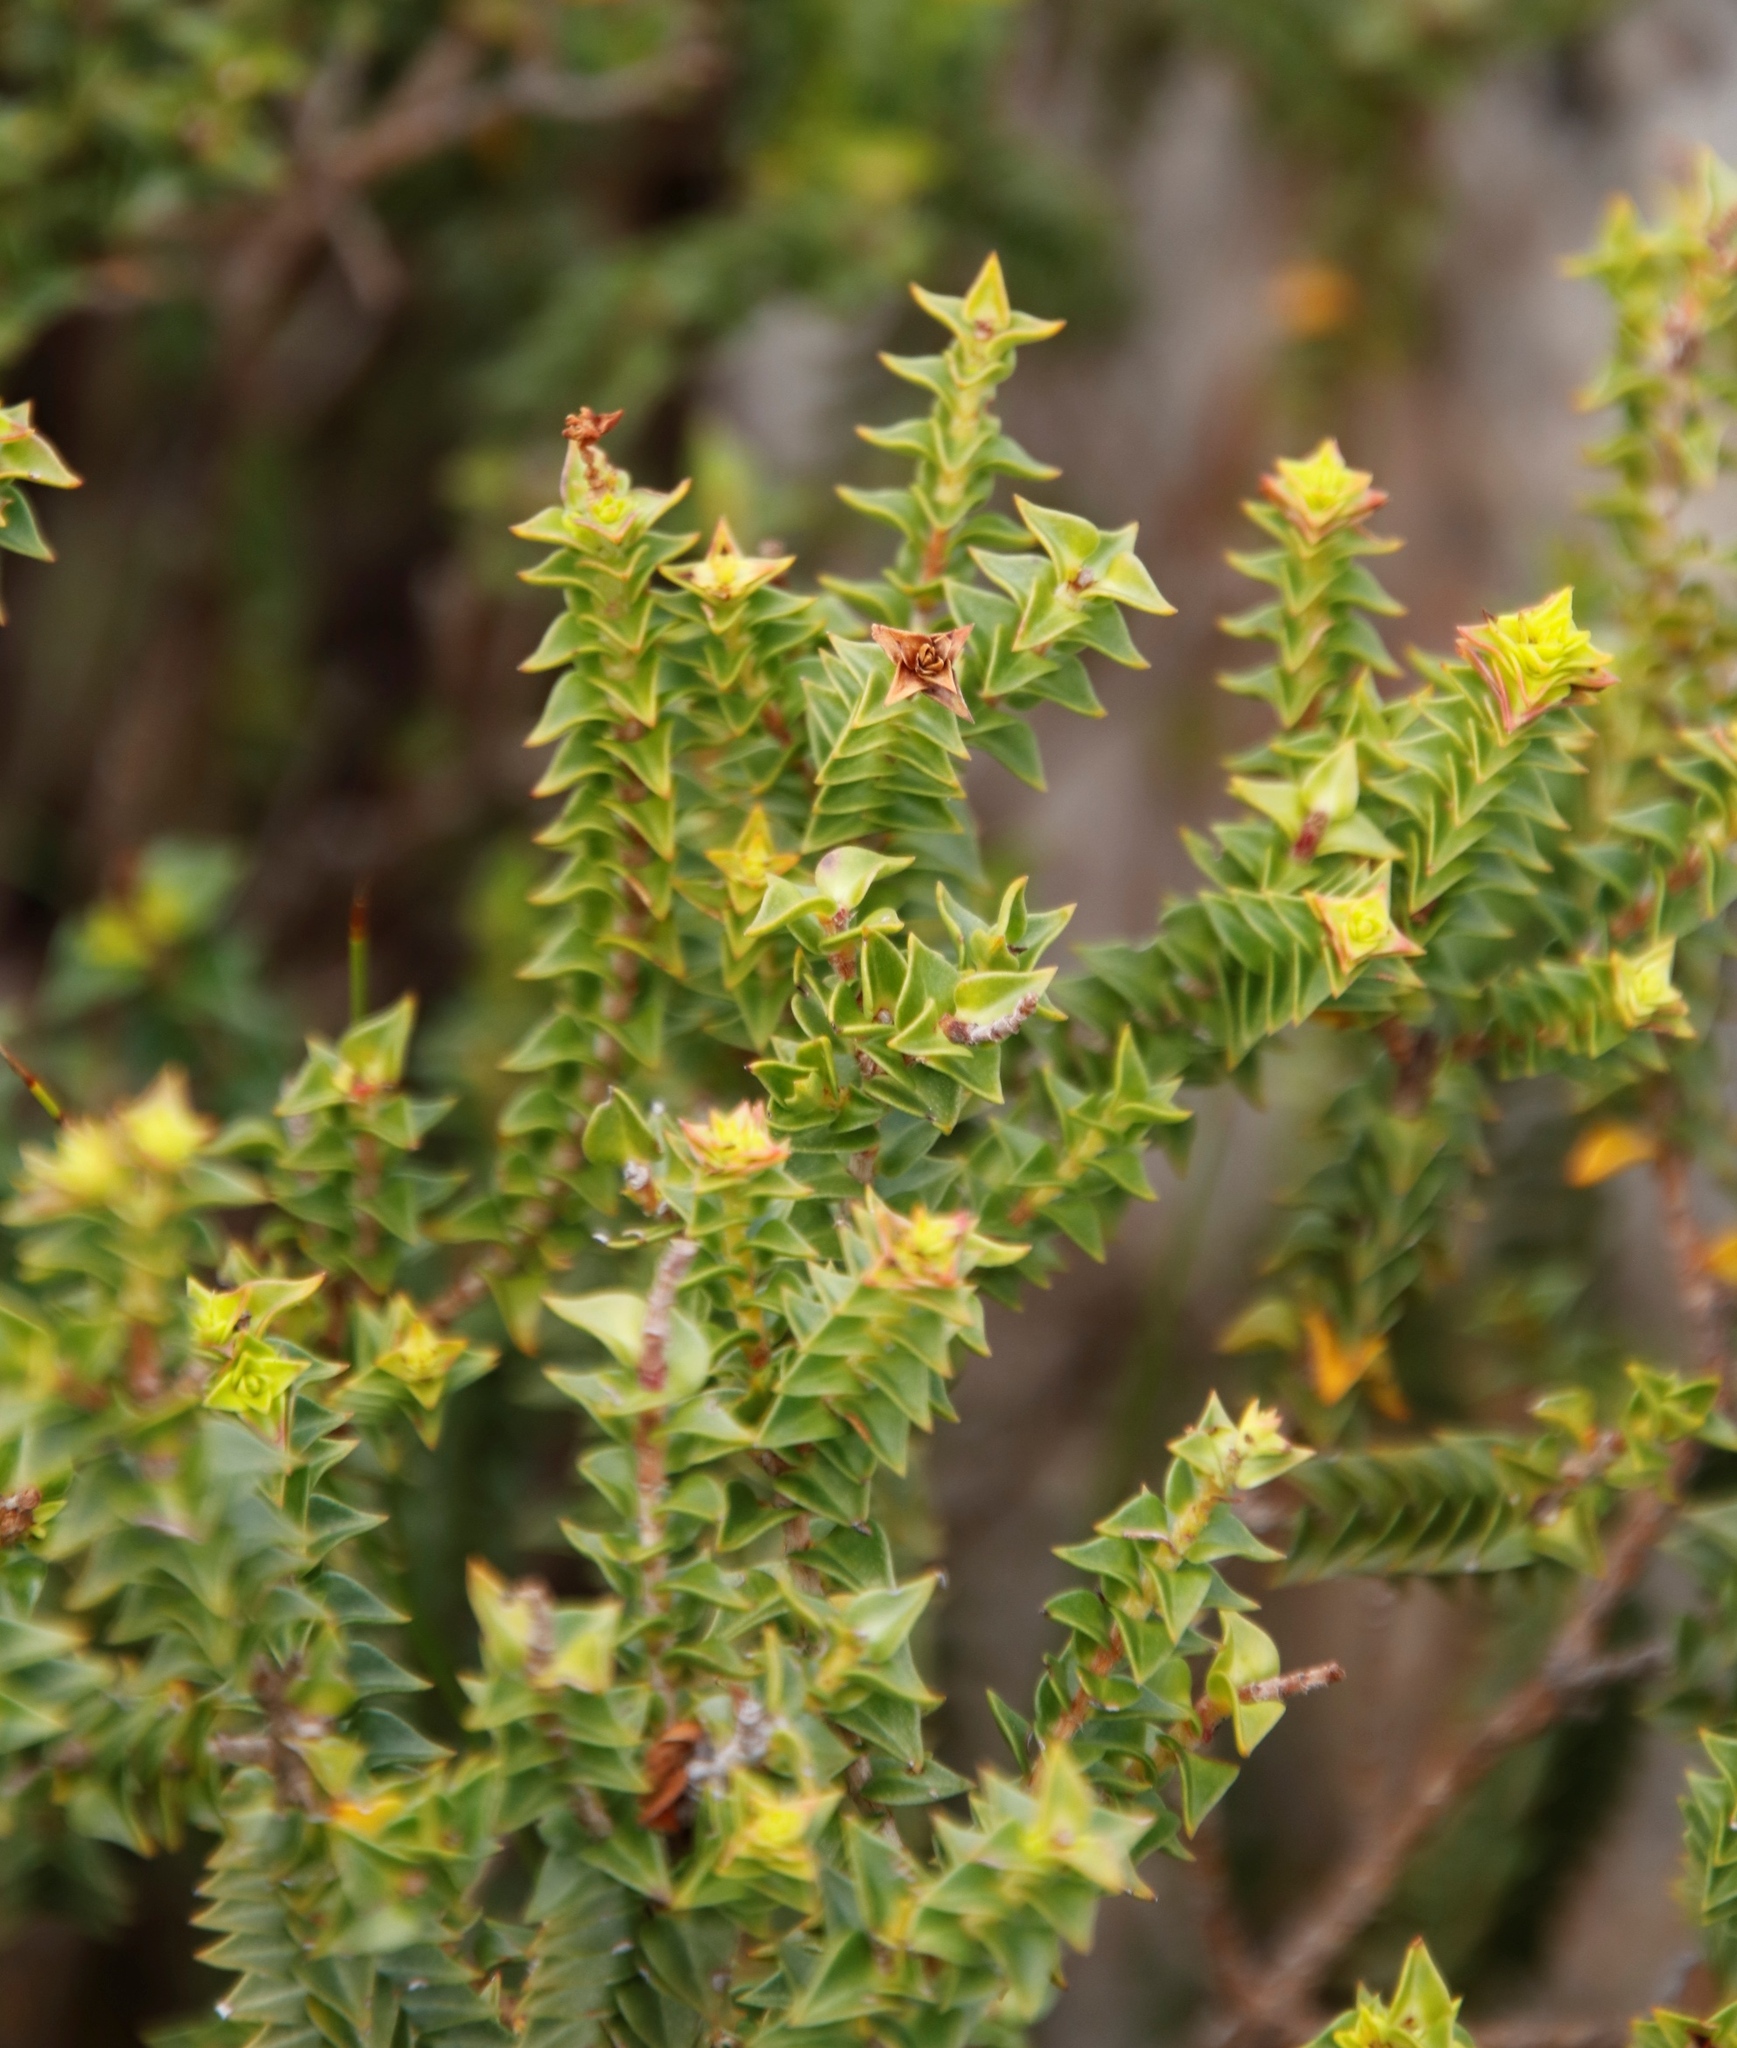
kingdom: Plantae
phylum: Tracheophyta
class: Magnoliopsida
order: Myrtales
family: Penaeaceae
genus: Penaea
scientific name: Penaea mucronata
